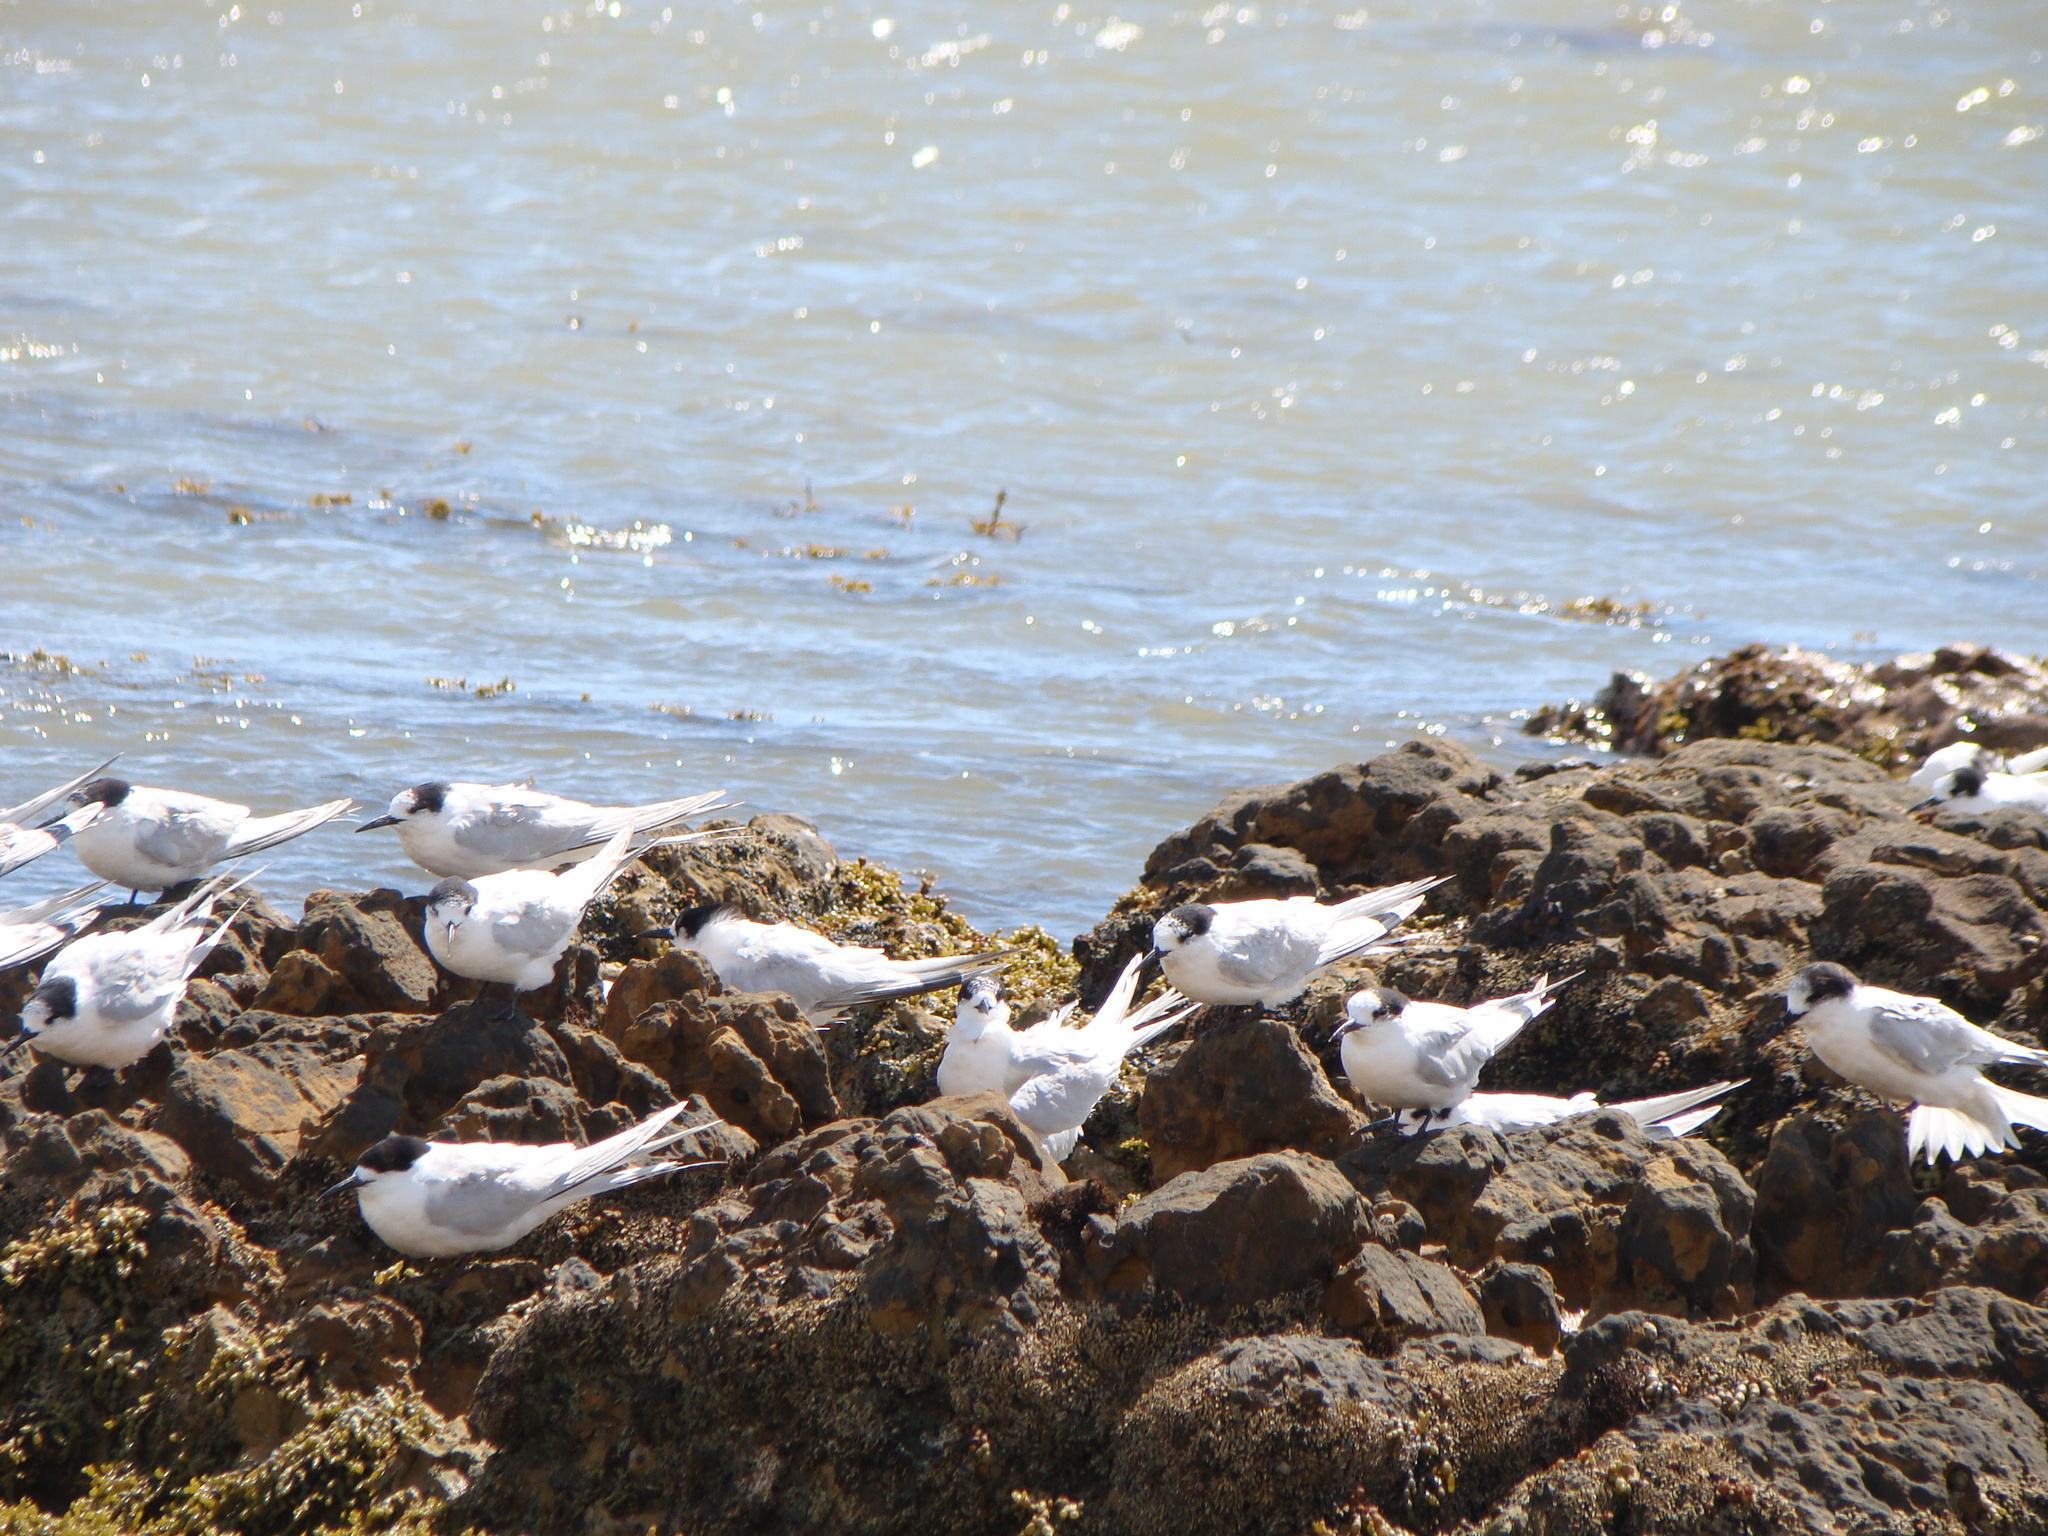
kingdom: Animalia
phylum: Chordata
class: Aves
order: Charadriiformes
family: Laridae
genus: Sterna
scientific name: Sterna striata
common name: White-fronted tern
